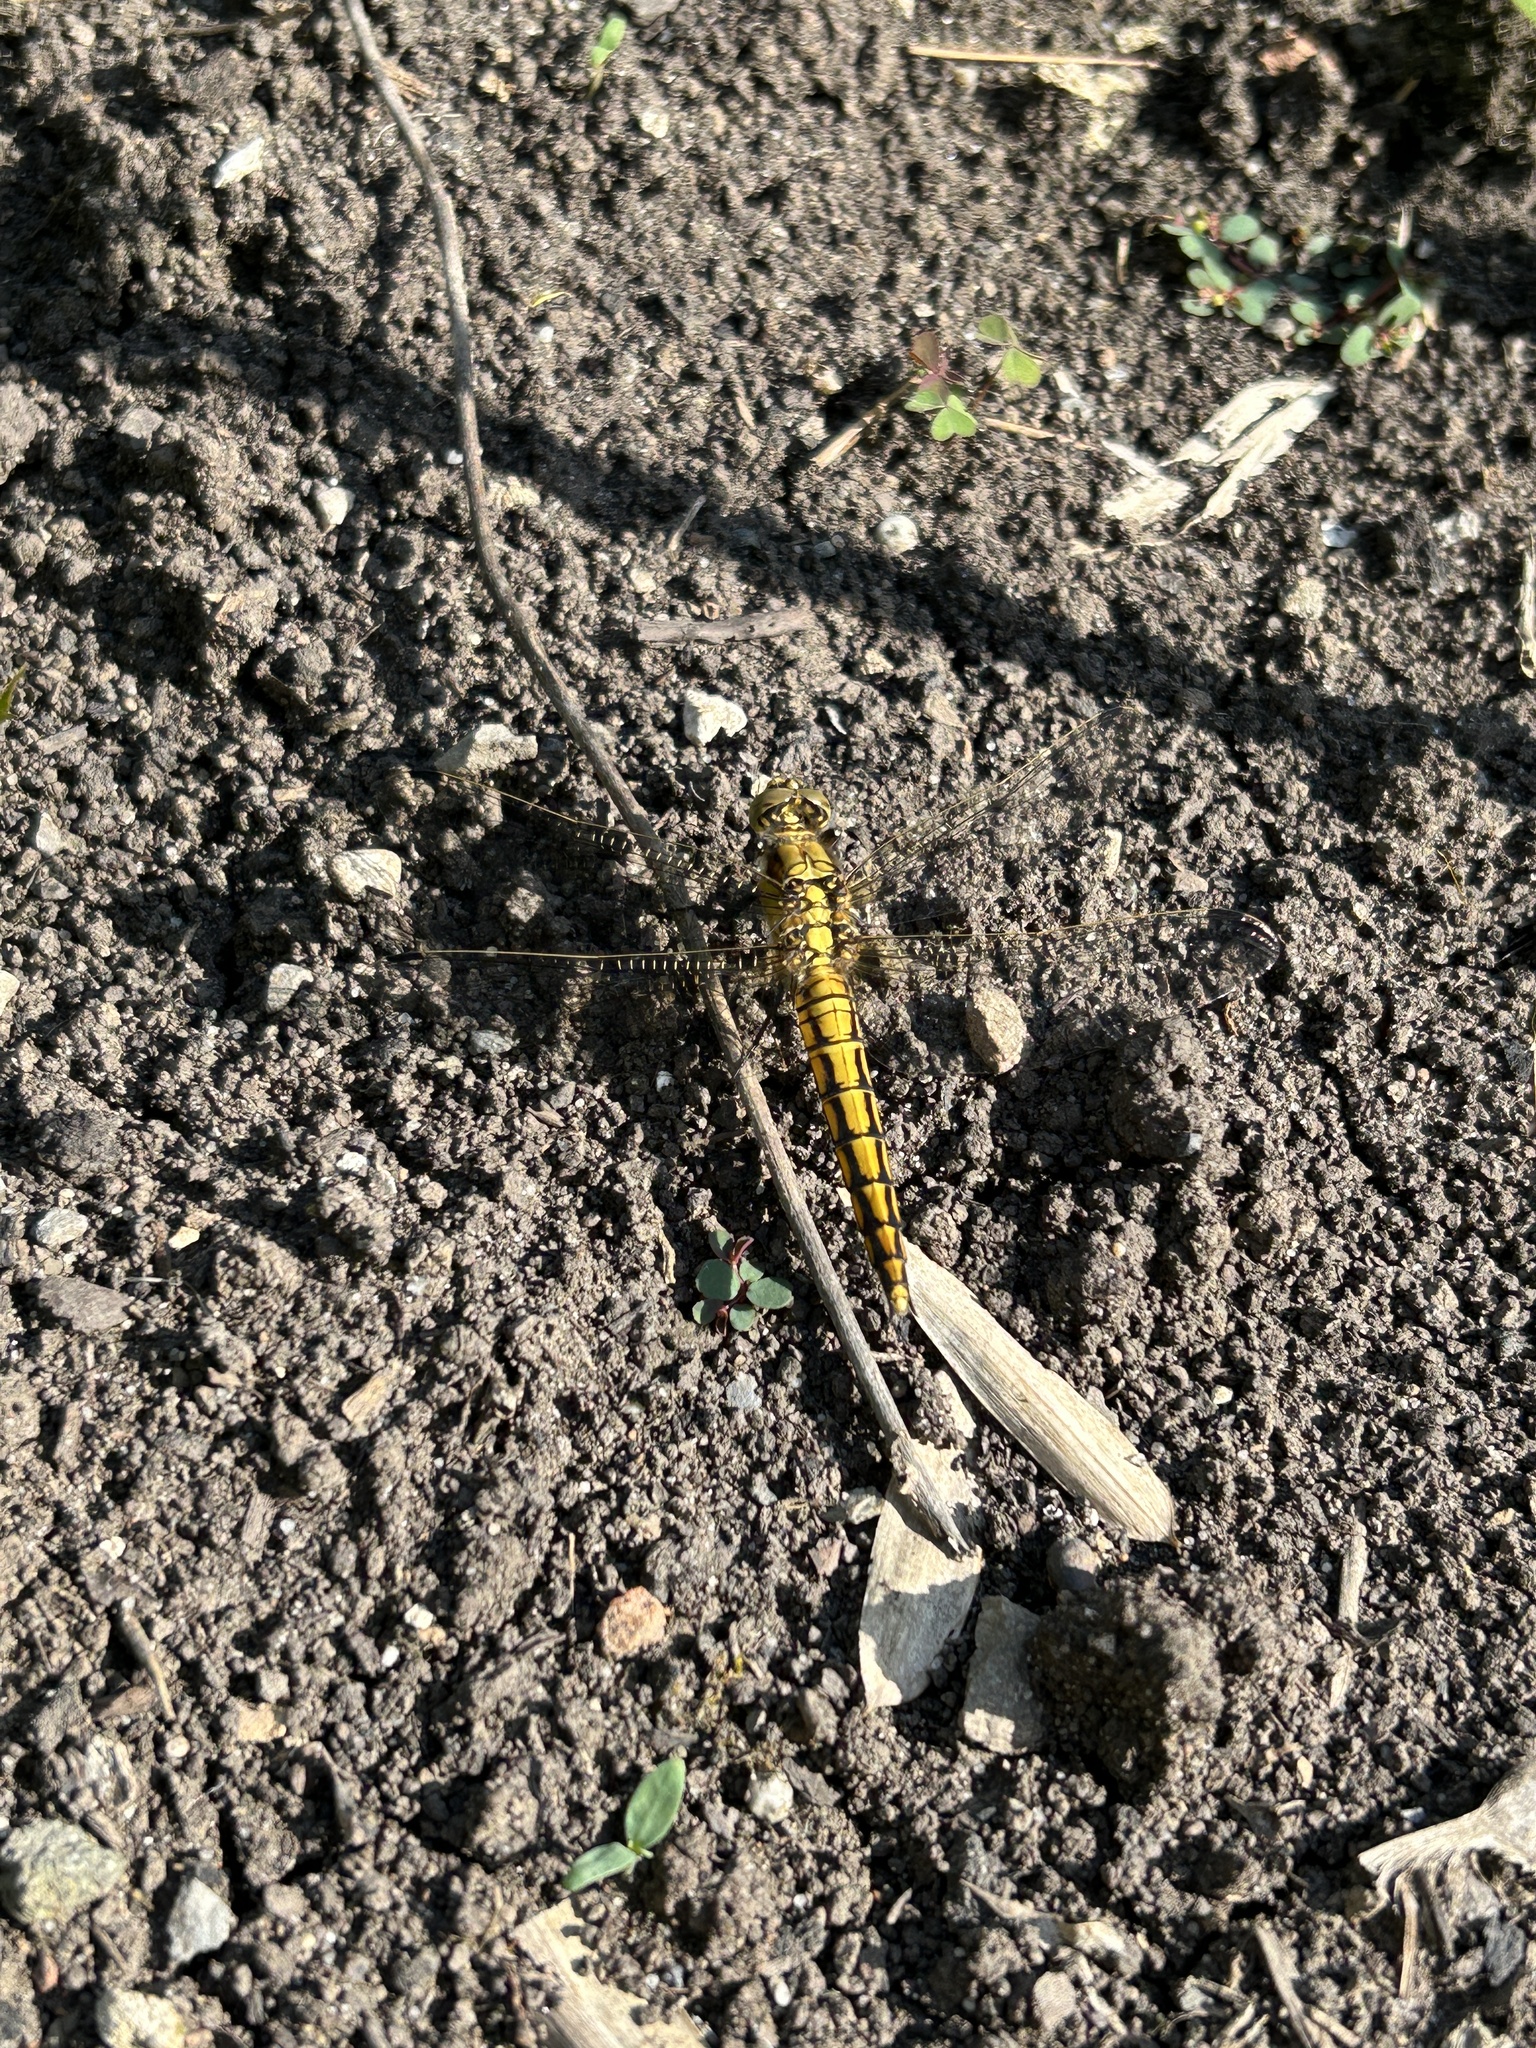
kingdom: Animalia
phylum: Arthropoda
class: Insecta
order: Odonata
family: Libellulidae
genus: Orthetrum
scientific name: Orthetrum cancellatum
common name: Black-tailed skimmer
